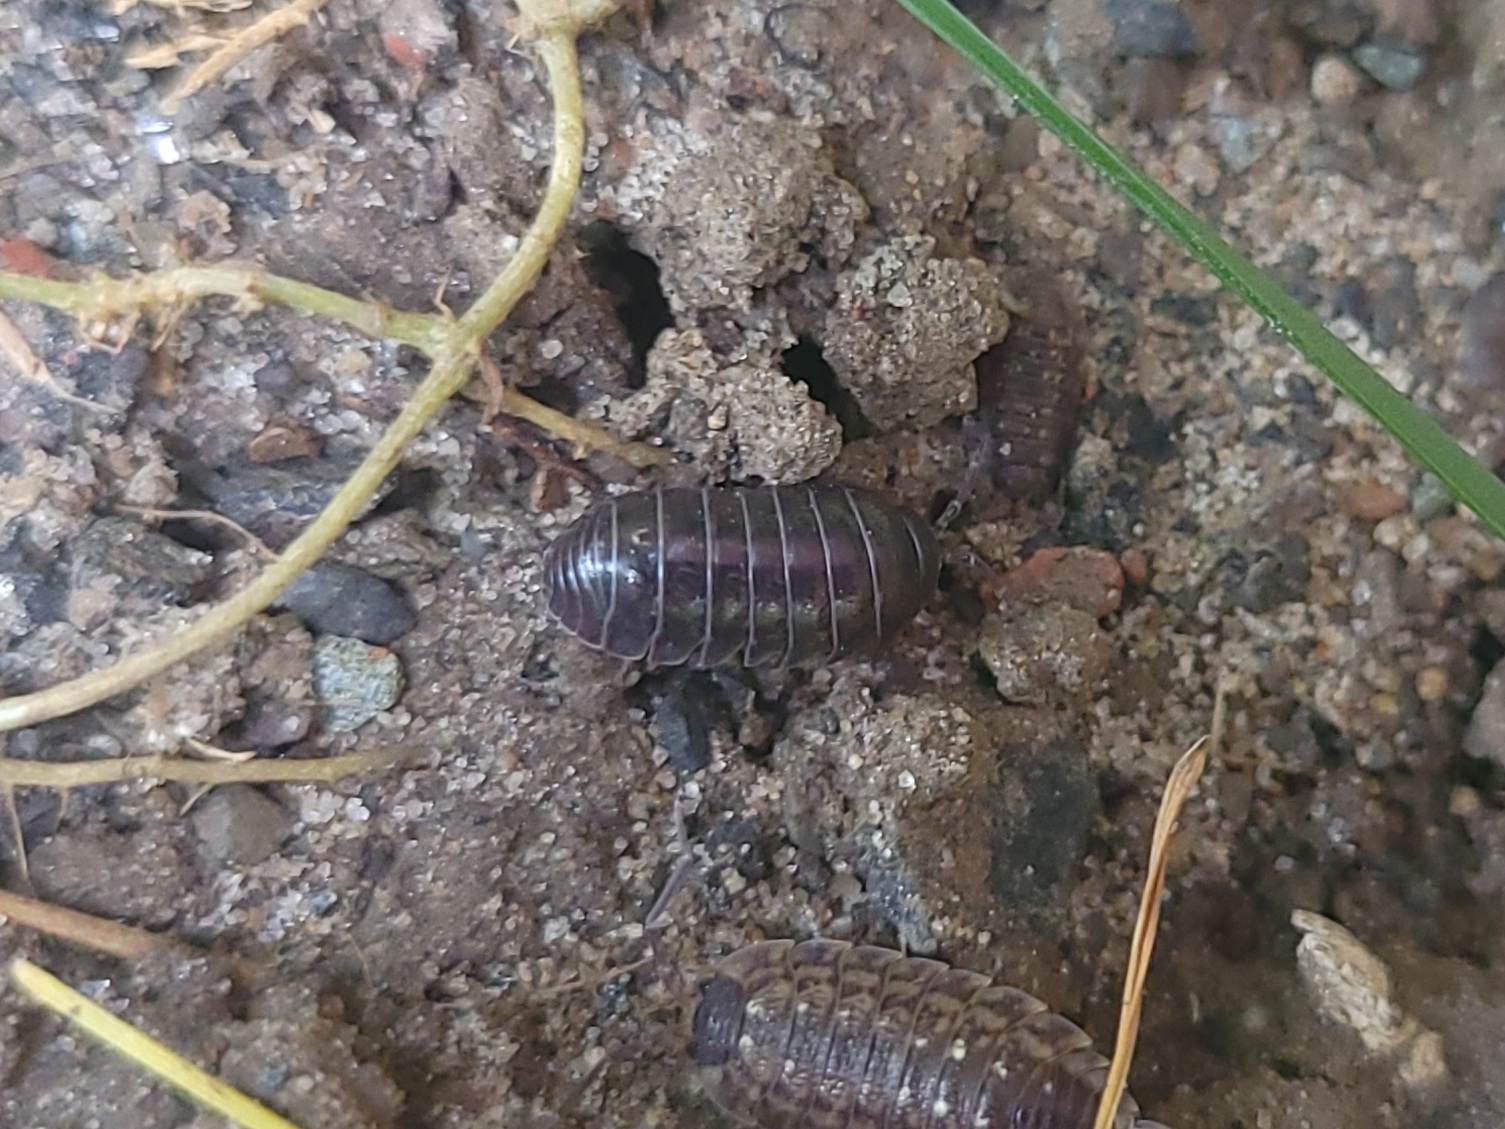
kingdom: Animalia
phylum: Arthropoda
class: Malacostraca
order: Isopoda
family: Armadillidiidae
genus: Armadillidium
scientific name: Armadillidium vulgare
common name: Common pill woodlouse
